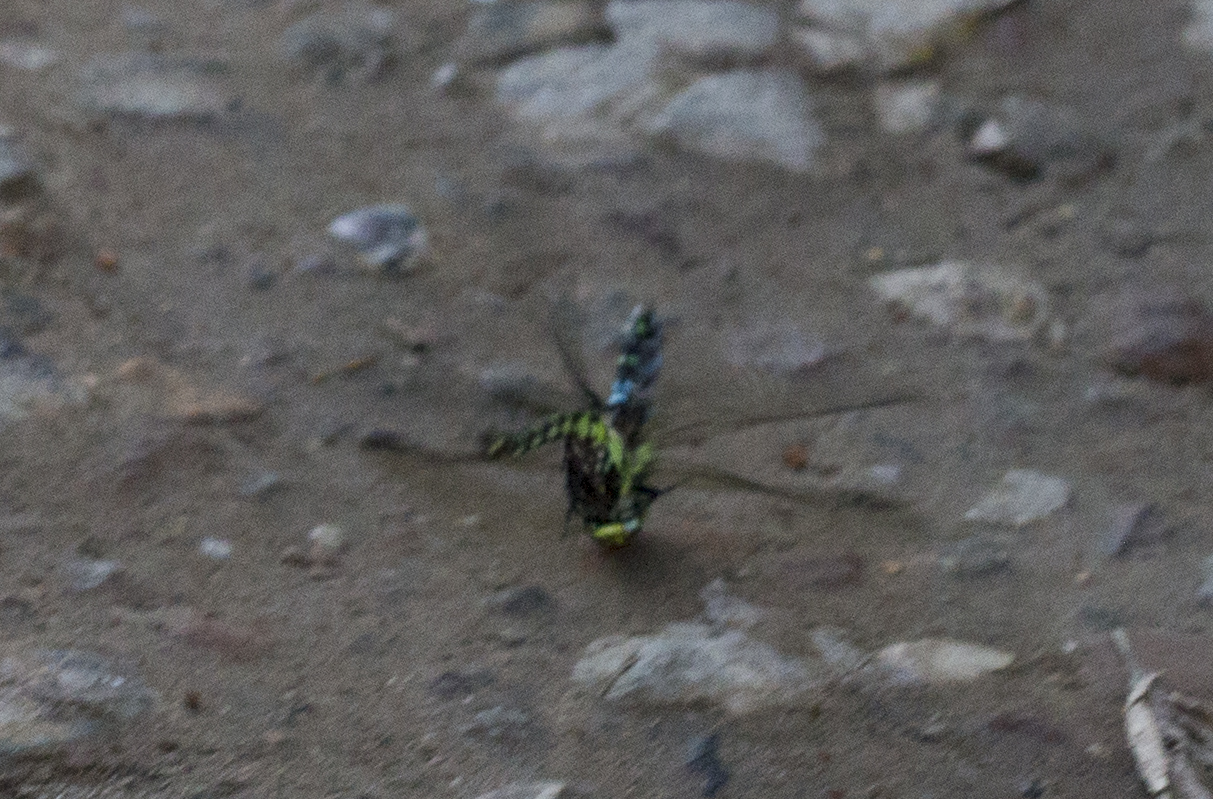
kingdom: Animalia
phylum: Arthropoda
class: Insecta
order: Odonata
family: Aeshnidae
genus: Aeshna
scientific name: Aeshna cyanea
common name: Southern hawker
